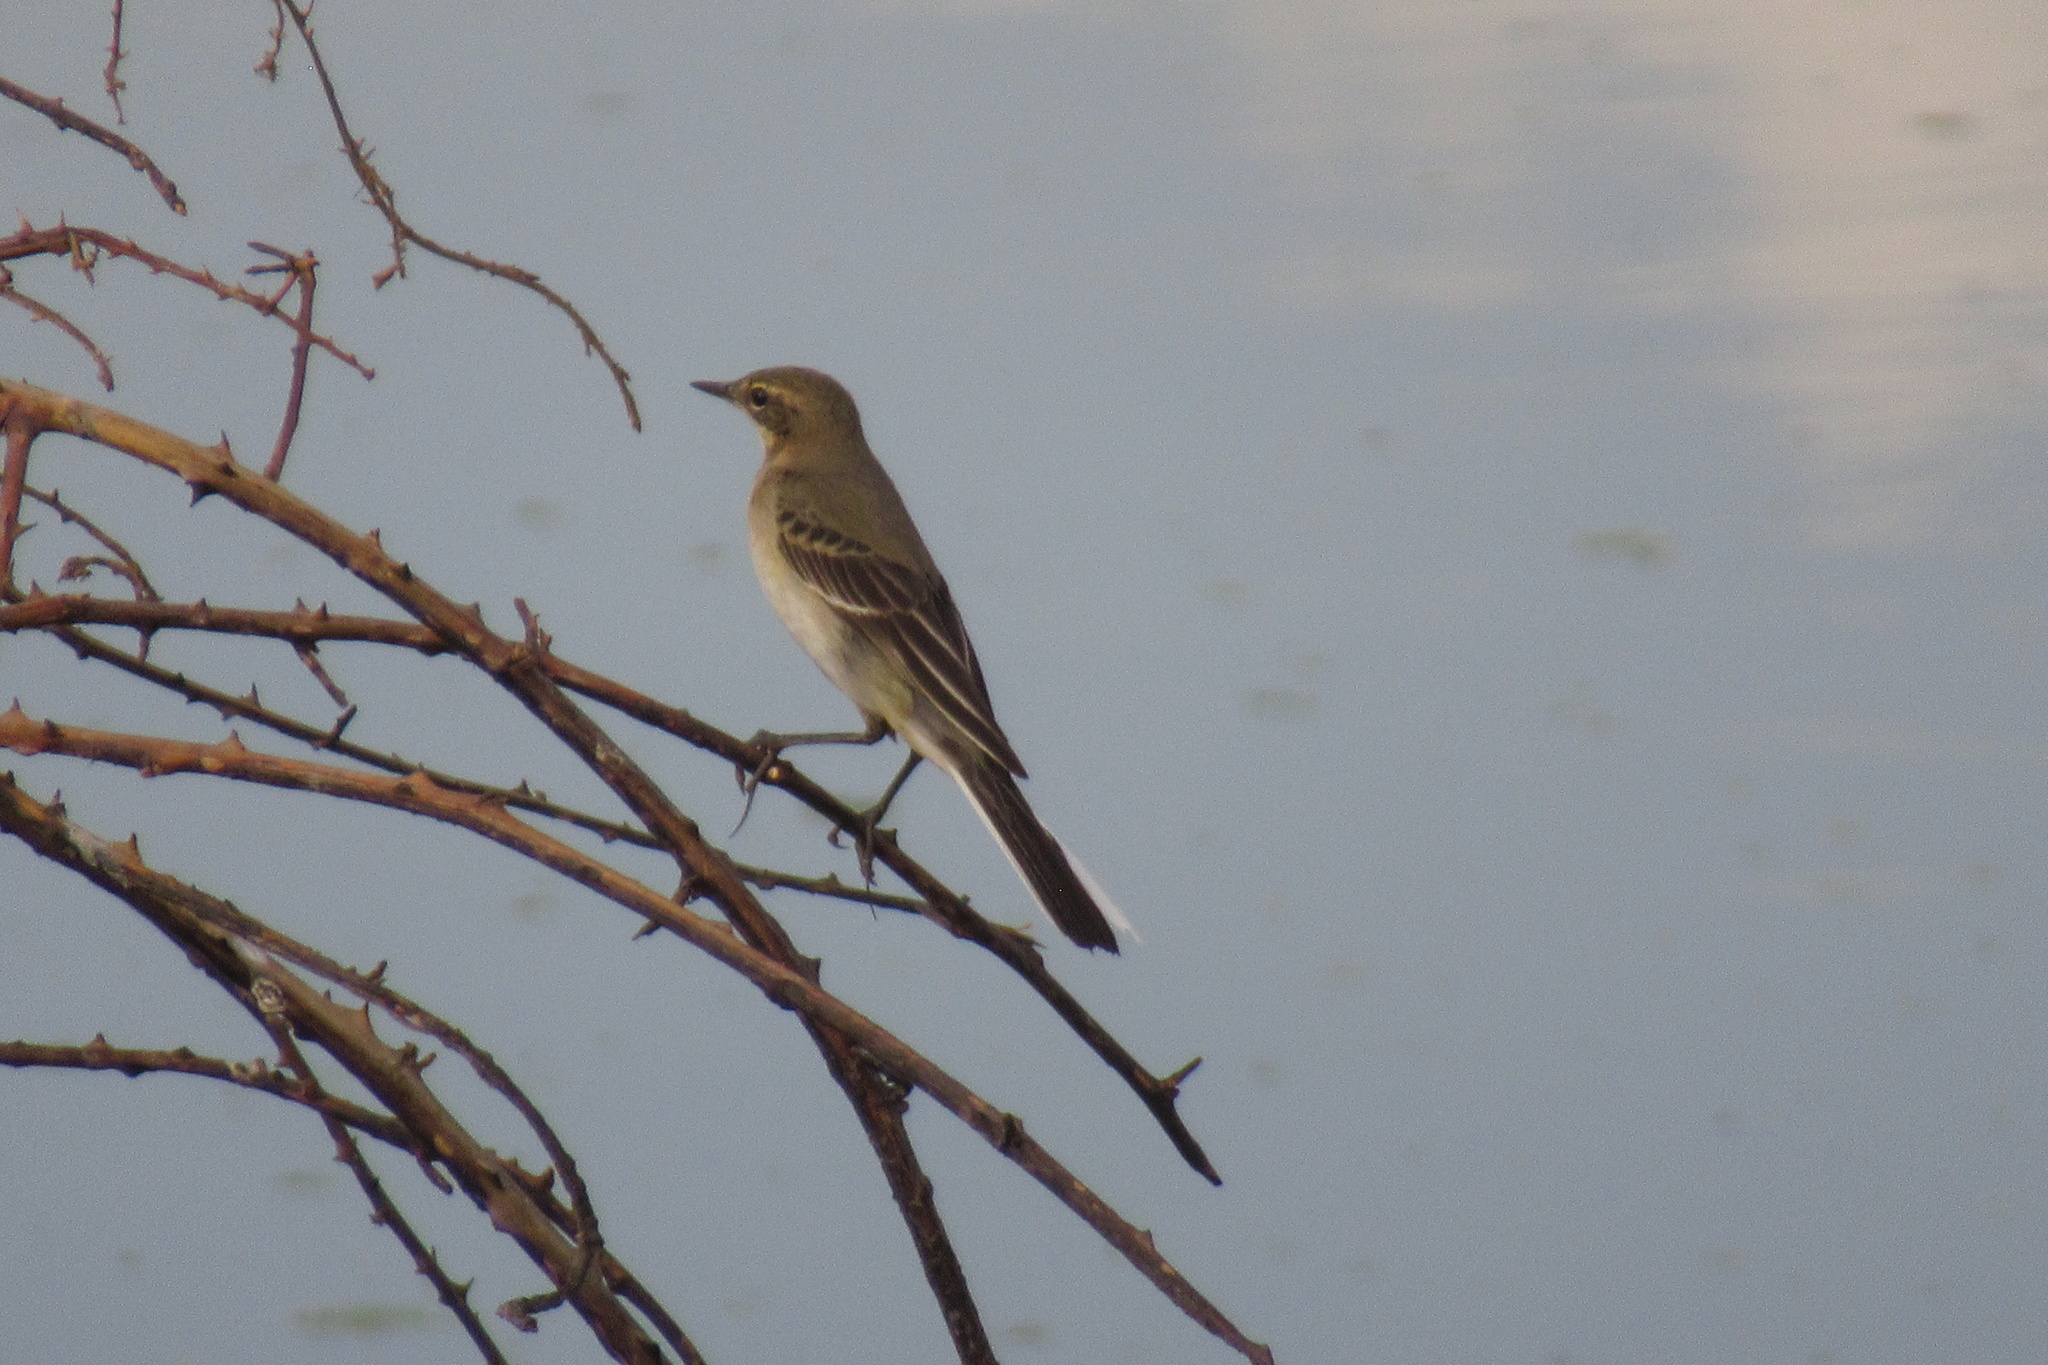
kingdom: Animalia
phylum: Chordata
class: Aves
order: Passeriformes
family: Motacillidae
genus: Motacilla
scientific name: Motacilla flava
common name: Western yellow wagtail
